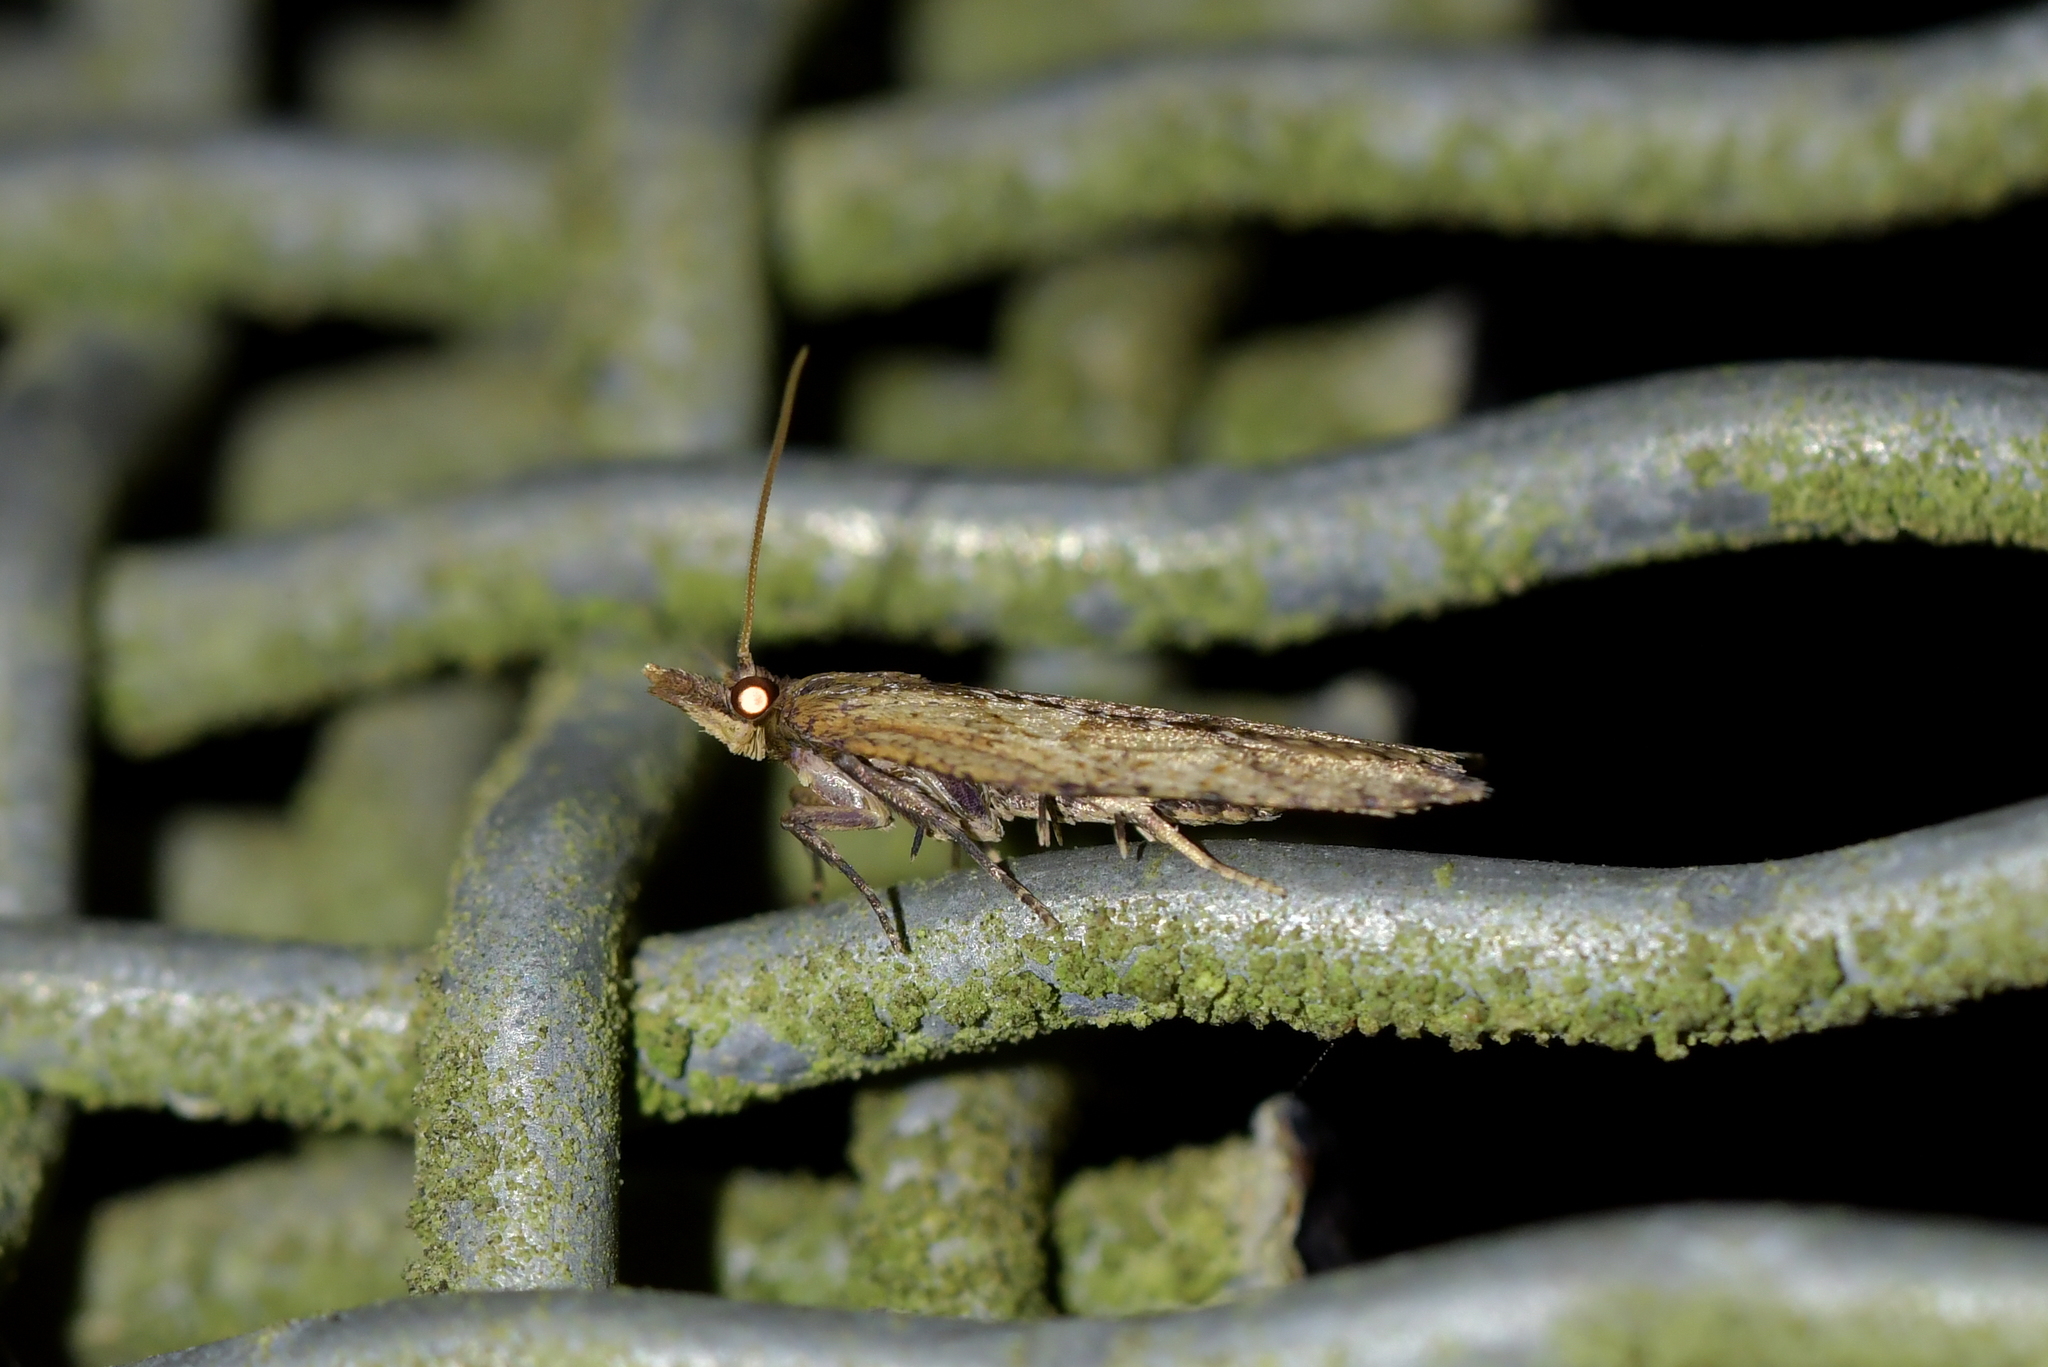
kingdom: Animalia
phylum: Arthropoda
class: Insecta
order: Lepidoptera
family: Tortricidae
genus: Planotortrix
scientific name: Planotortrix notophaea
